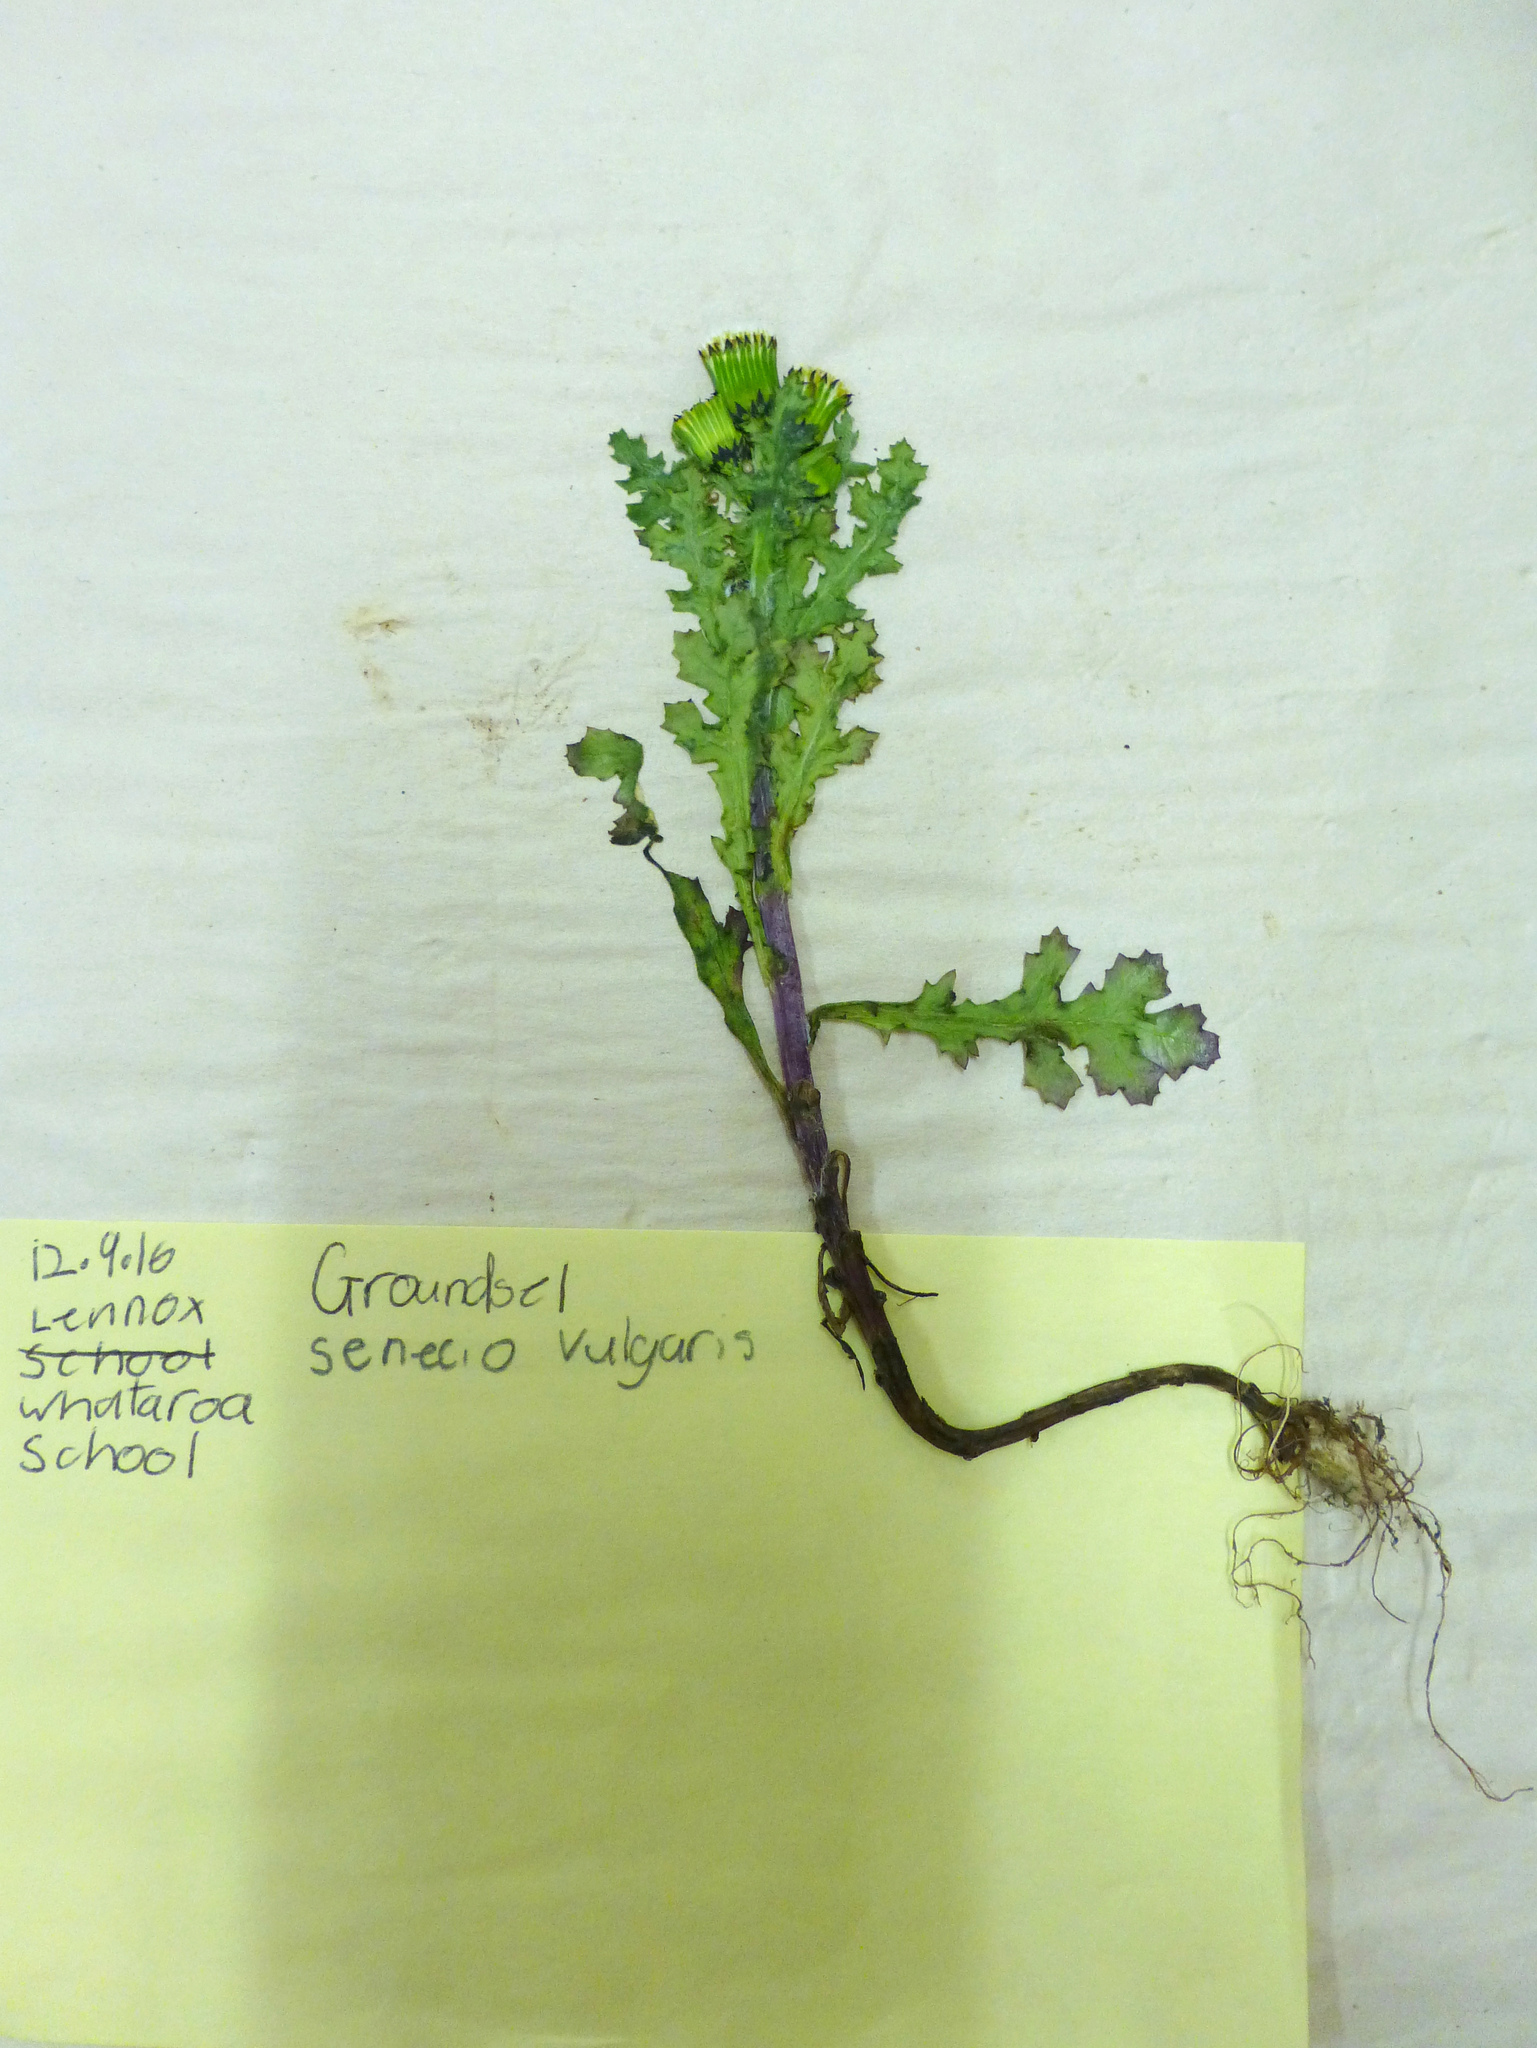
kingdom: Plantae
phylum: Tracheophyta
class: Magnoliopsida
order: Asterales
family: Asteraceae
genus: Senecio
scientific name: Senecio vulgaris
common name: Old-man-in-the-spring
